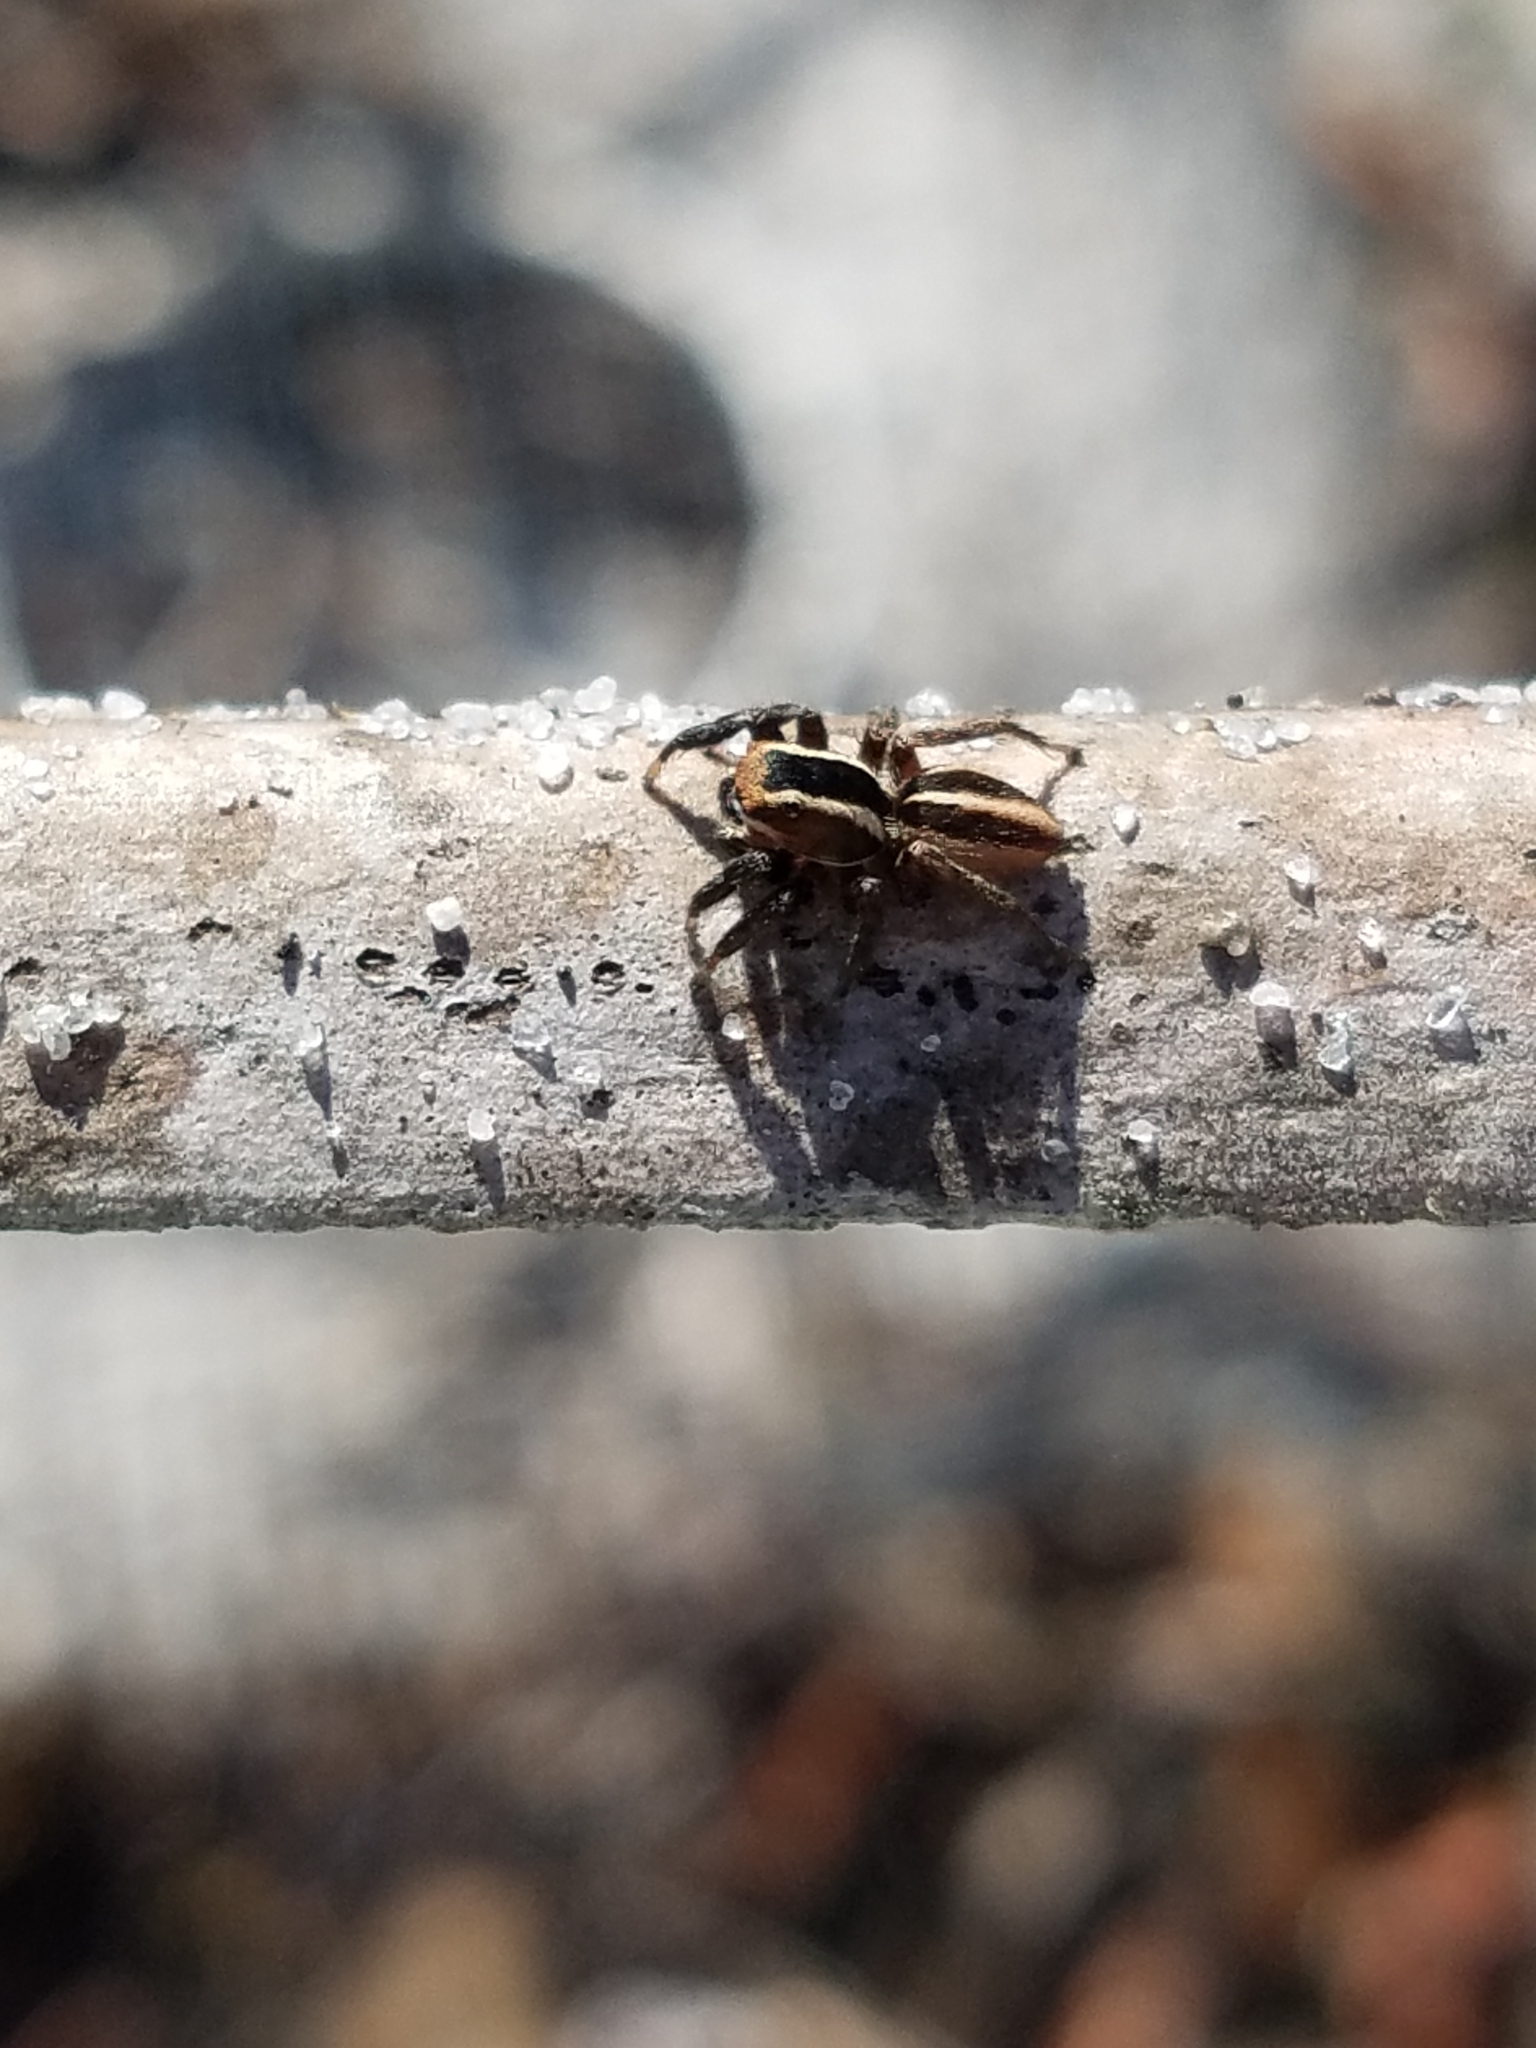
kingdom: Animalia
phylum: Arthropoda
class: Arachnida
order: Araneae
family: Salticidae
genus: Phlegra
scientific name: Phlegra hentzi
